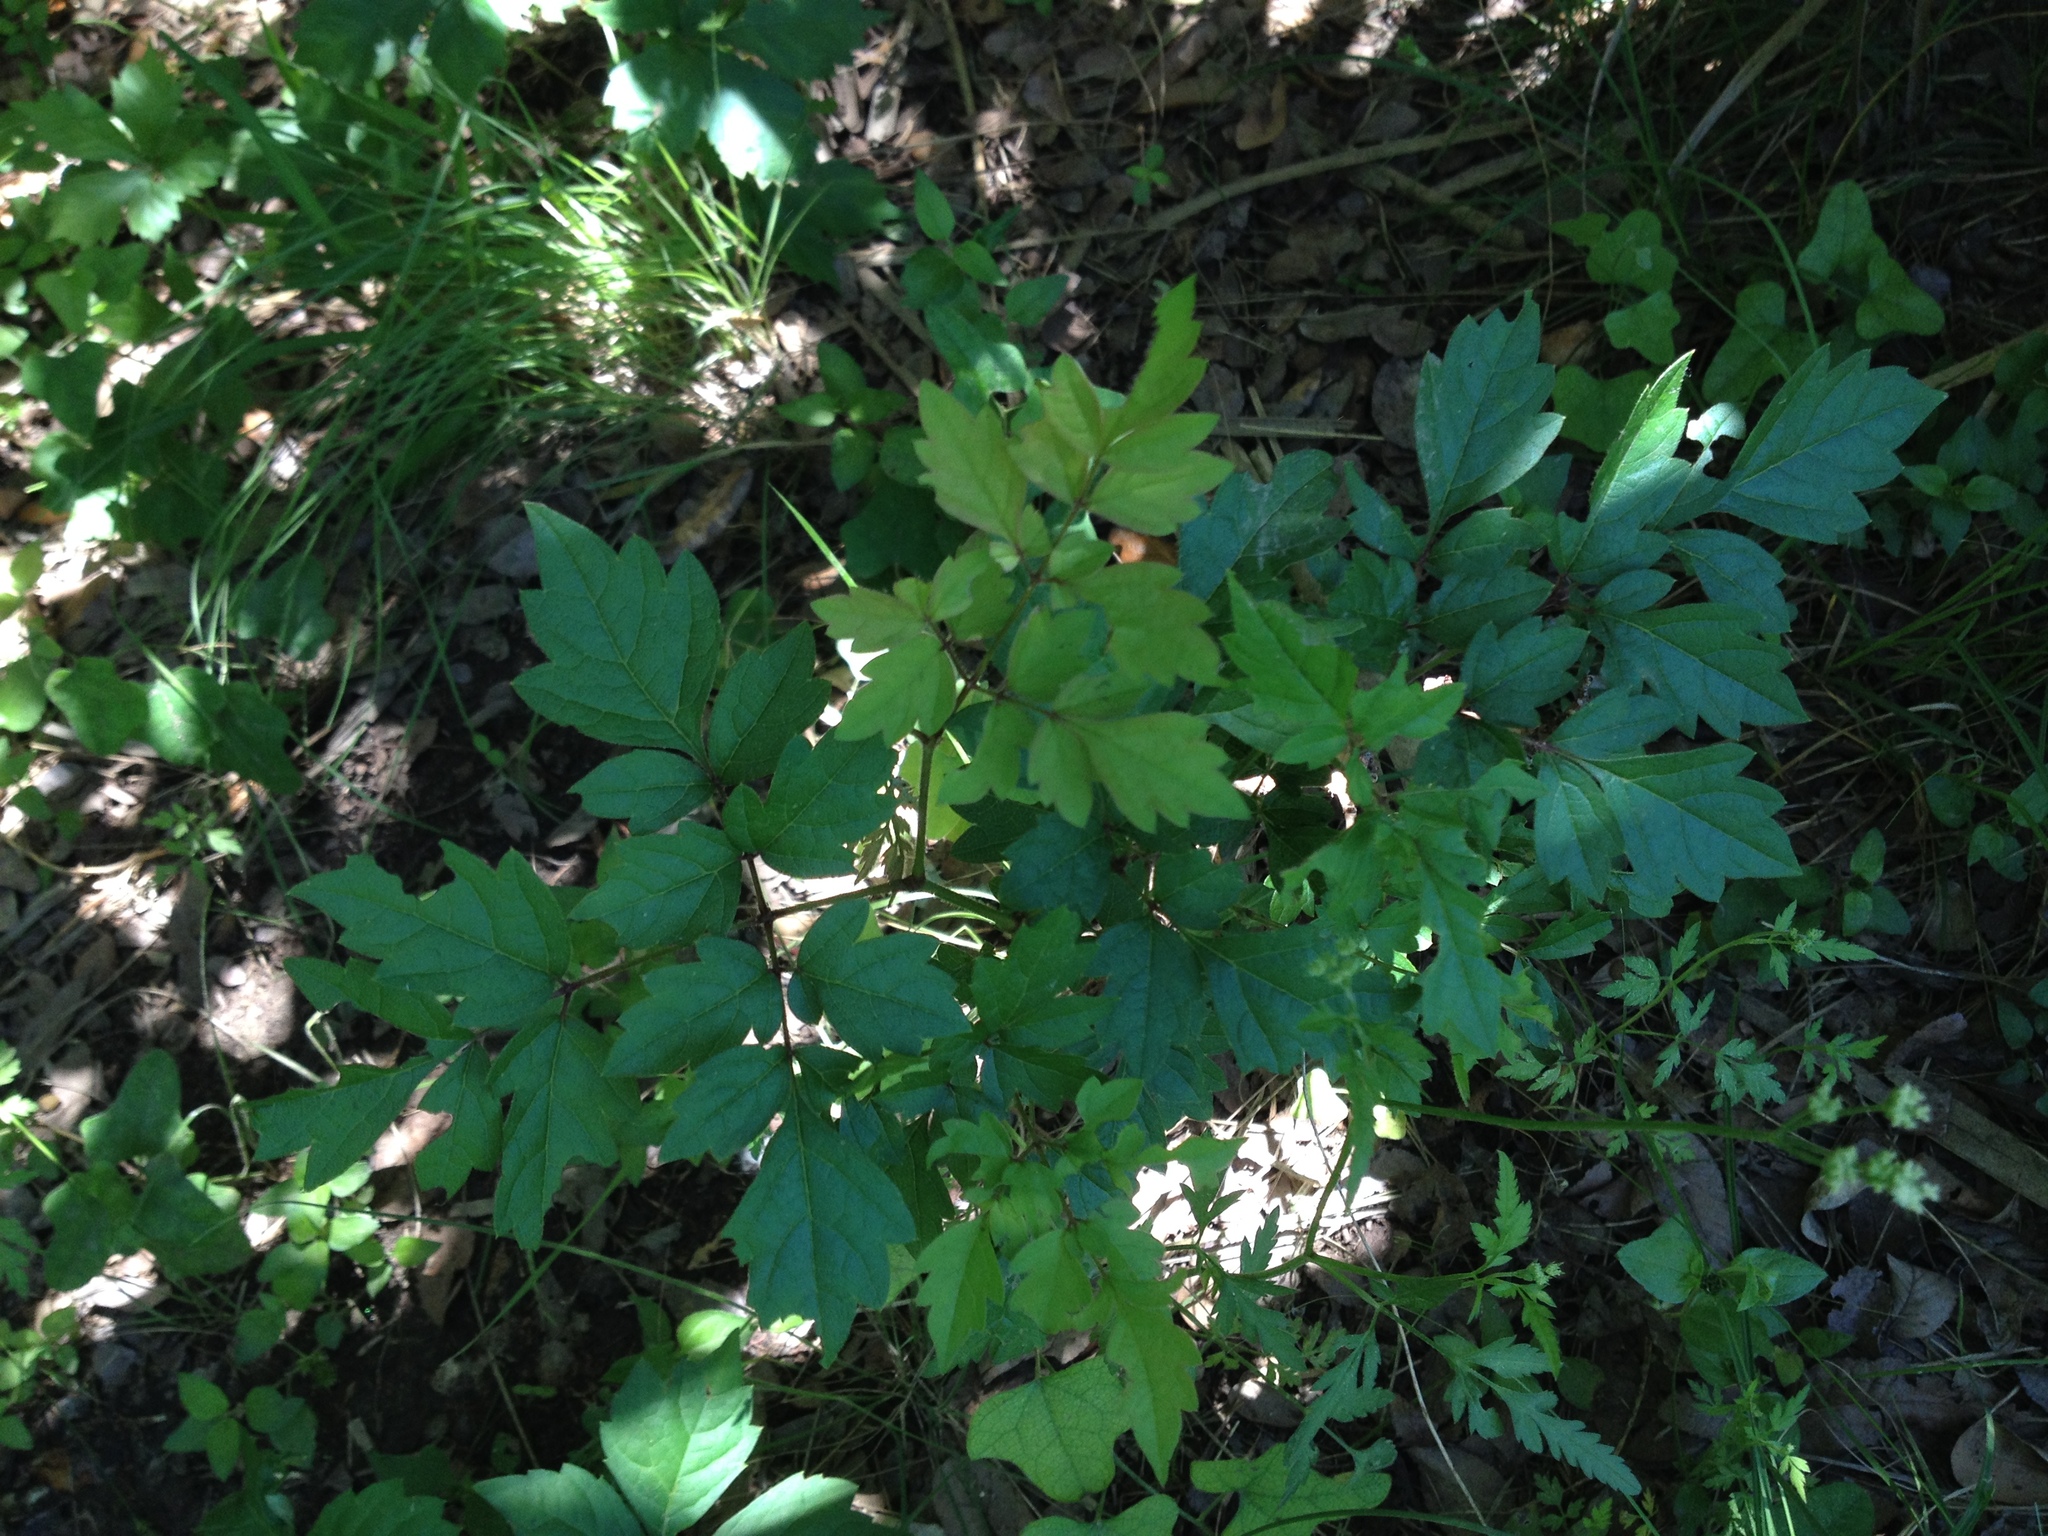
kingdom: Plantae
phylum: Tracheophyta
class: Magnoliopsida
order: Vitales
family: Vitaceae
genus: Nekemias
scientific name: Nekemias arborea
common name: Peppervine
